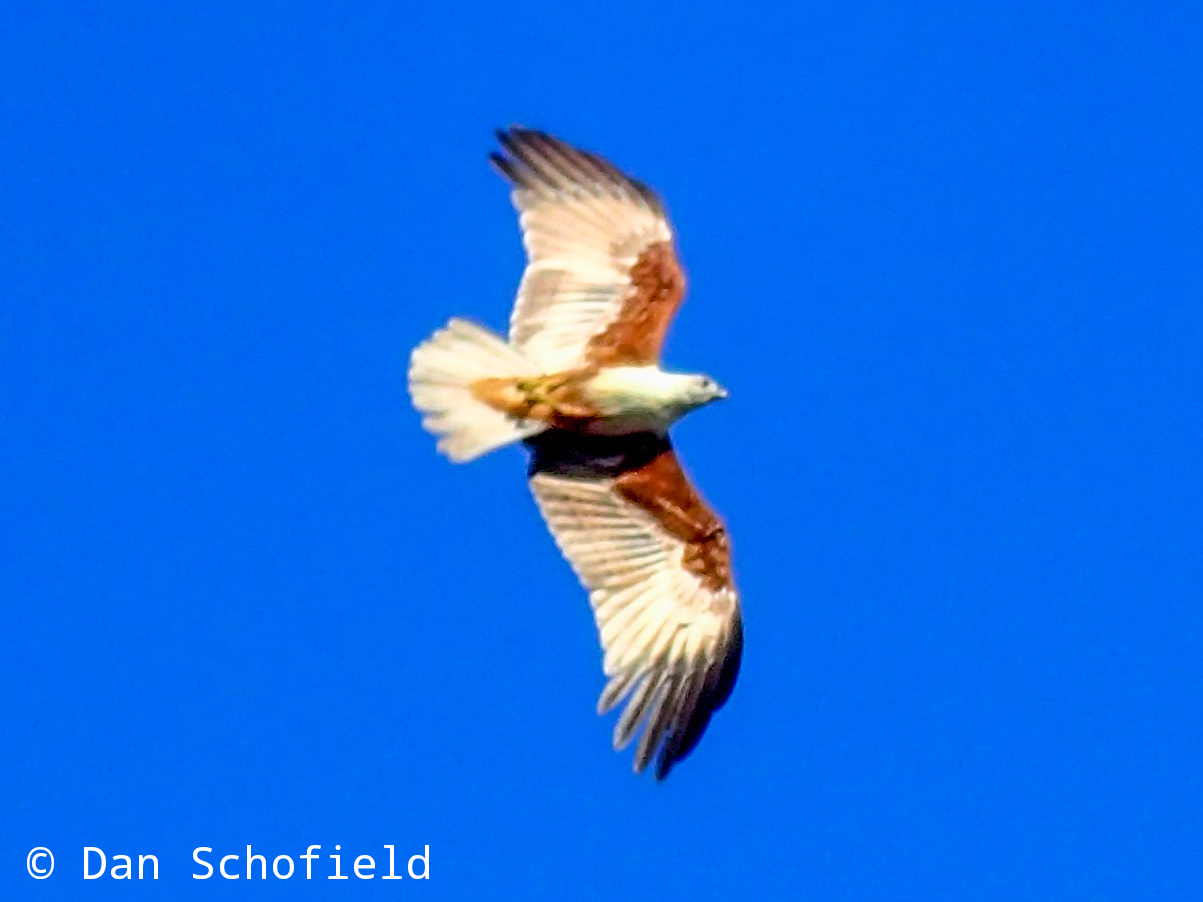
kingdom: Animalia
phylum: Chordata
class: Aves
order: Accipitriformes
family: Accipitridae
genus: Haliastur
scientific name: Haliastur indus
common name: Brahminy kite
